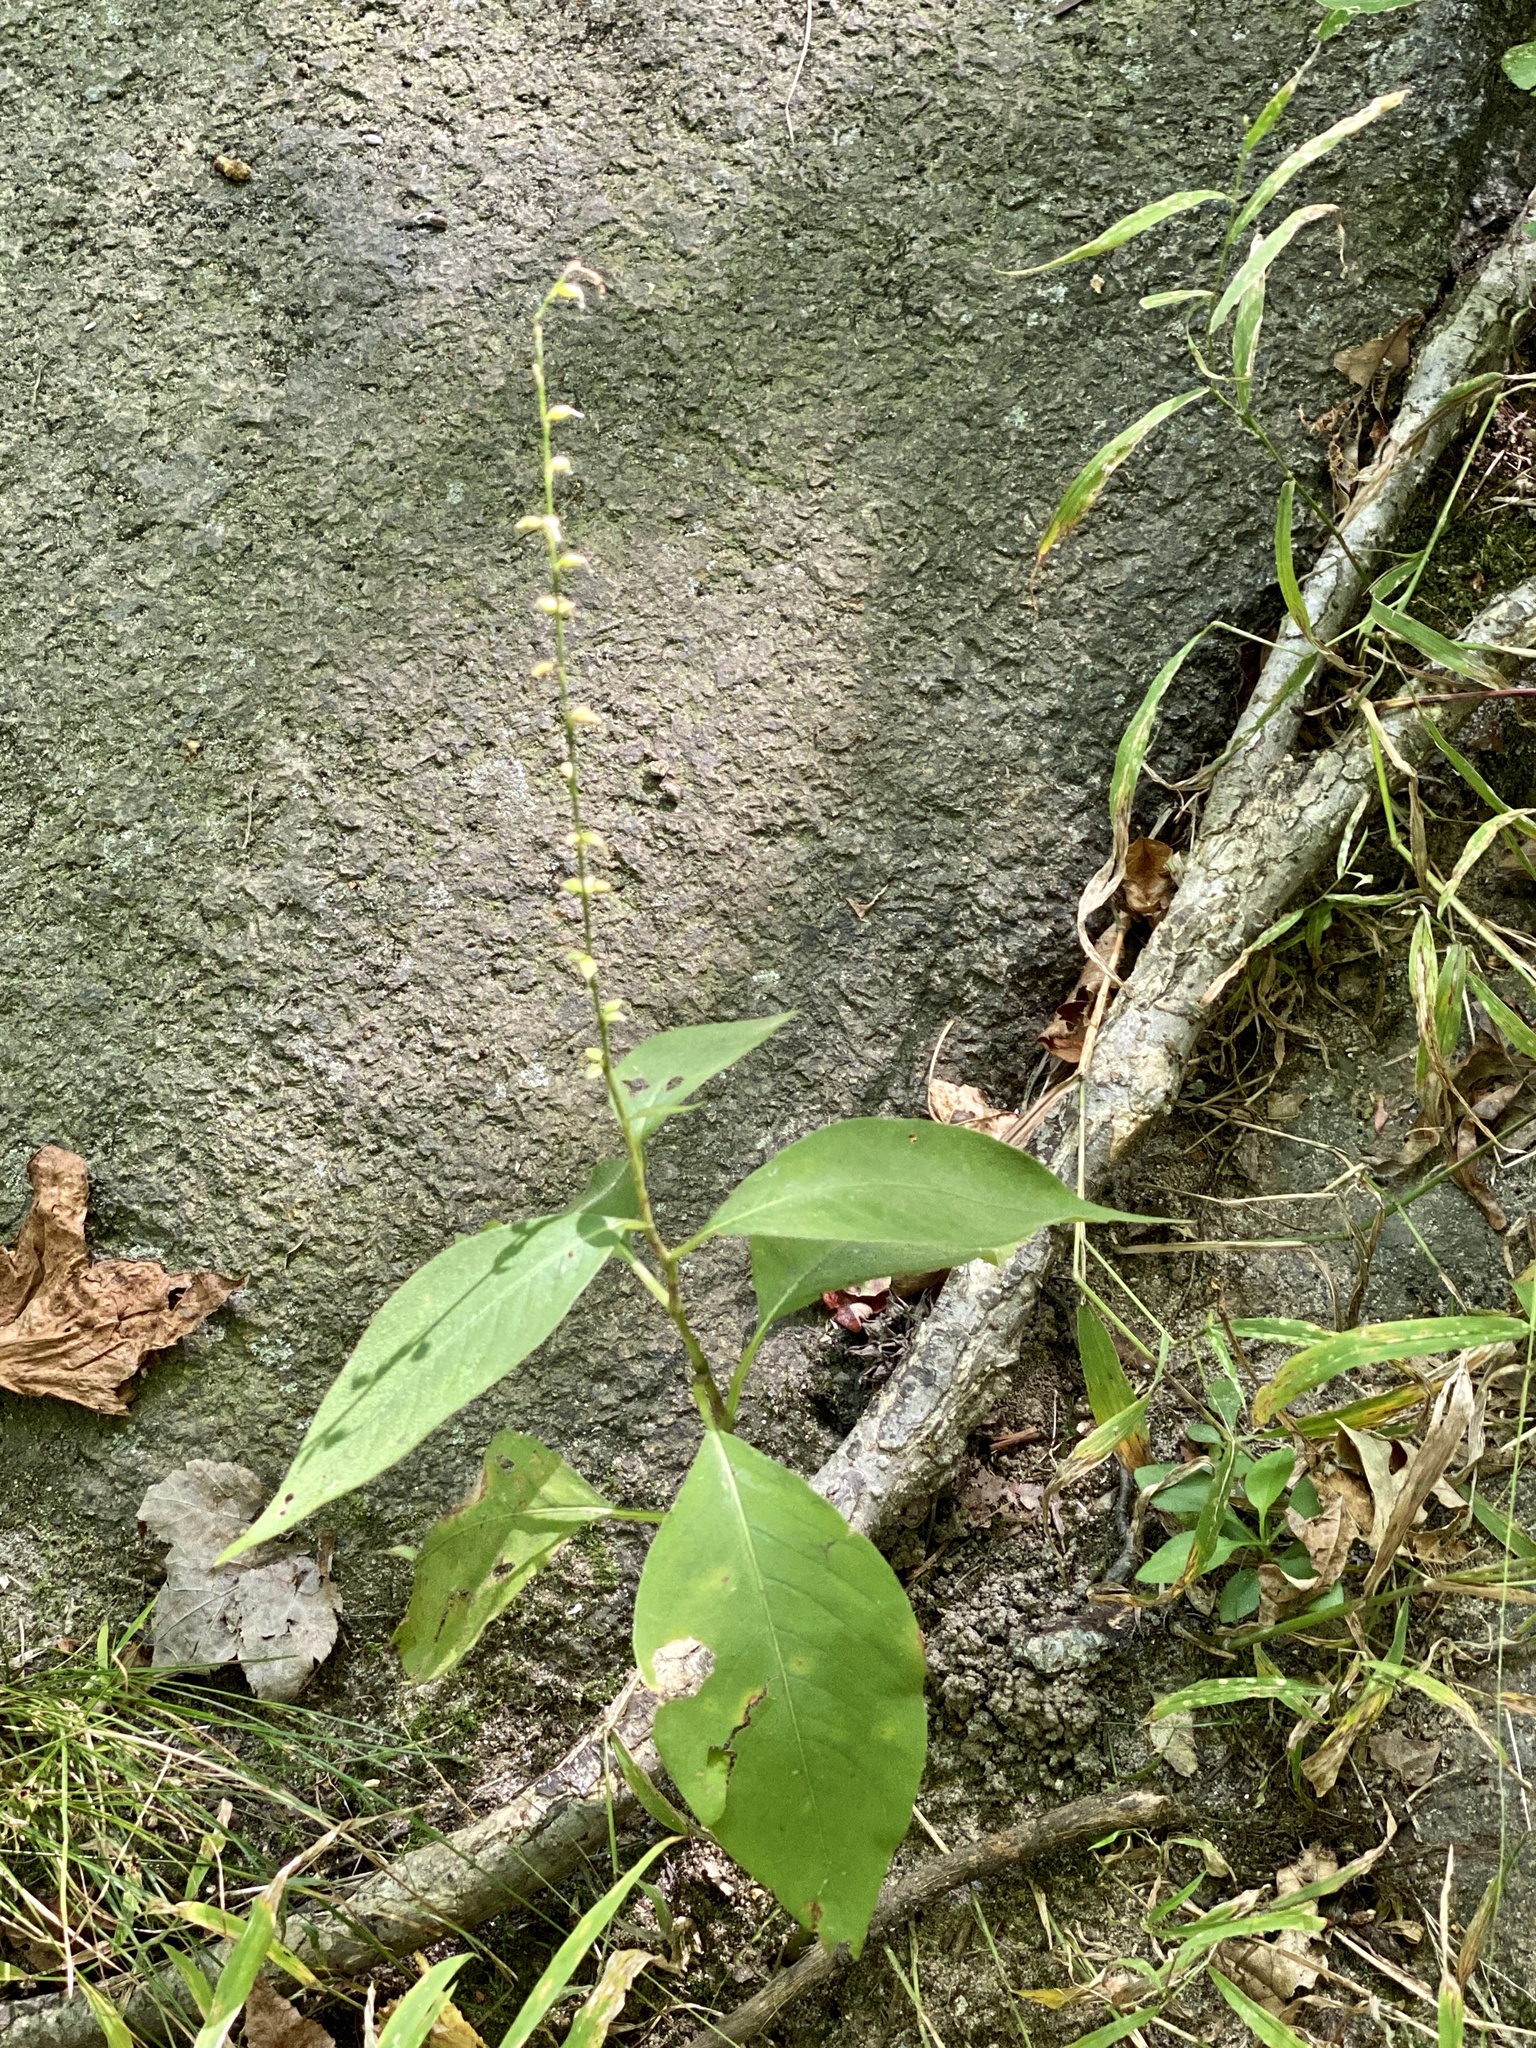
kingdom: Plantae
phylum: Tracheophyta
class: Magnoliopsida
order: Caryophyllales
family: Polygonaceae
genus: Persicaria
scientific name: Persicaria virginiana
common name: Jumpseed
